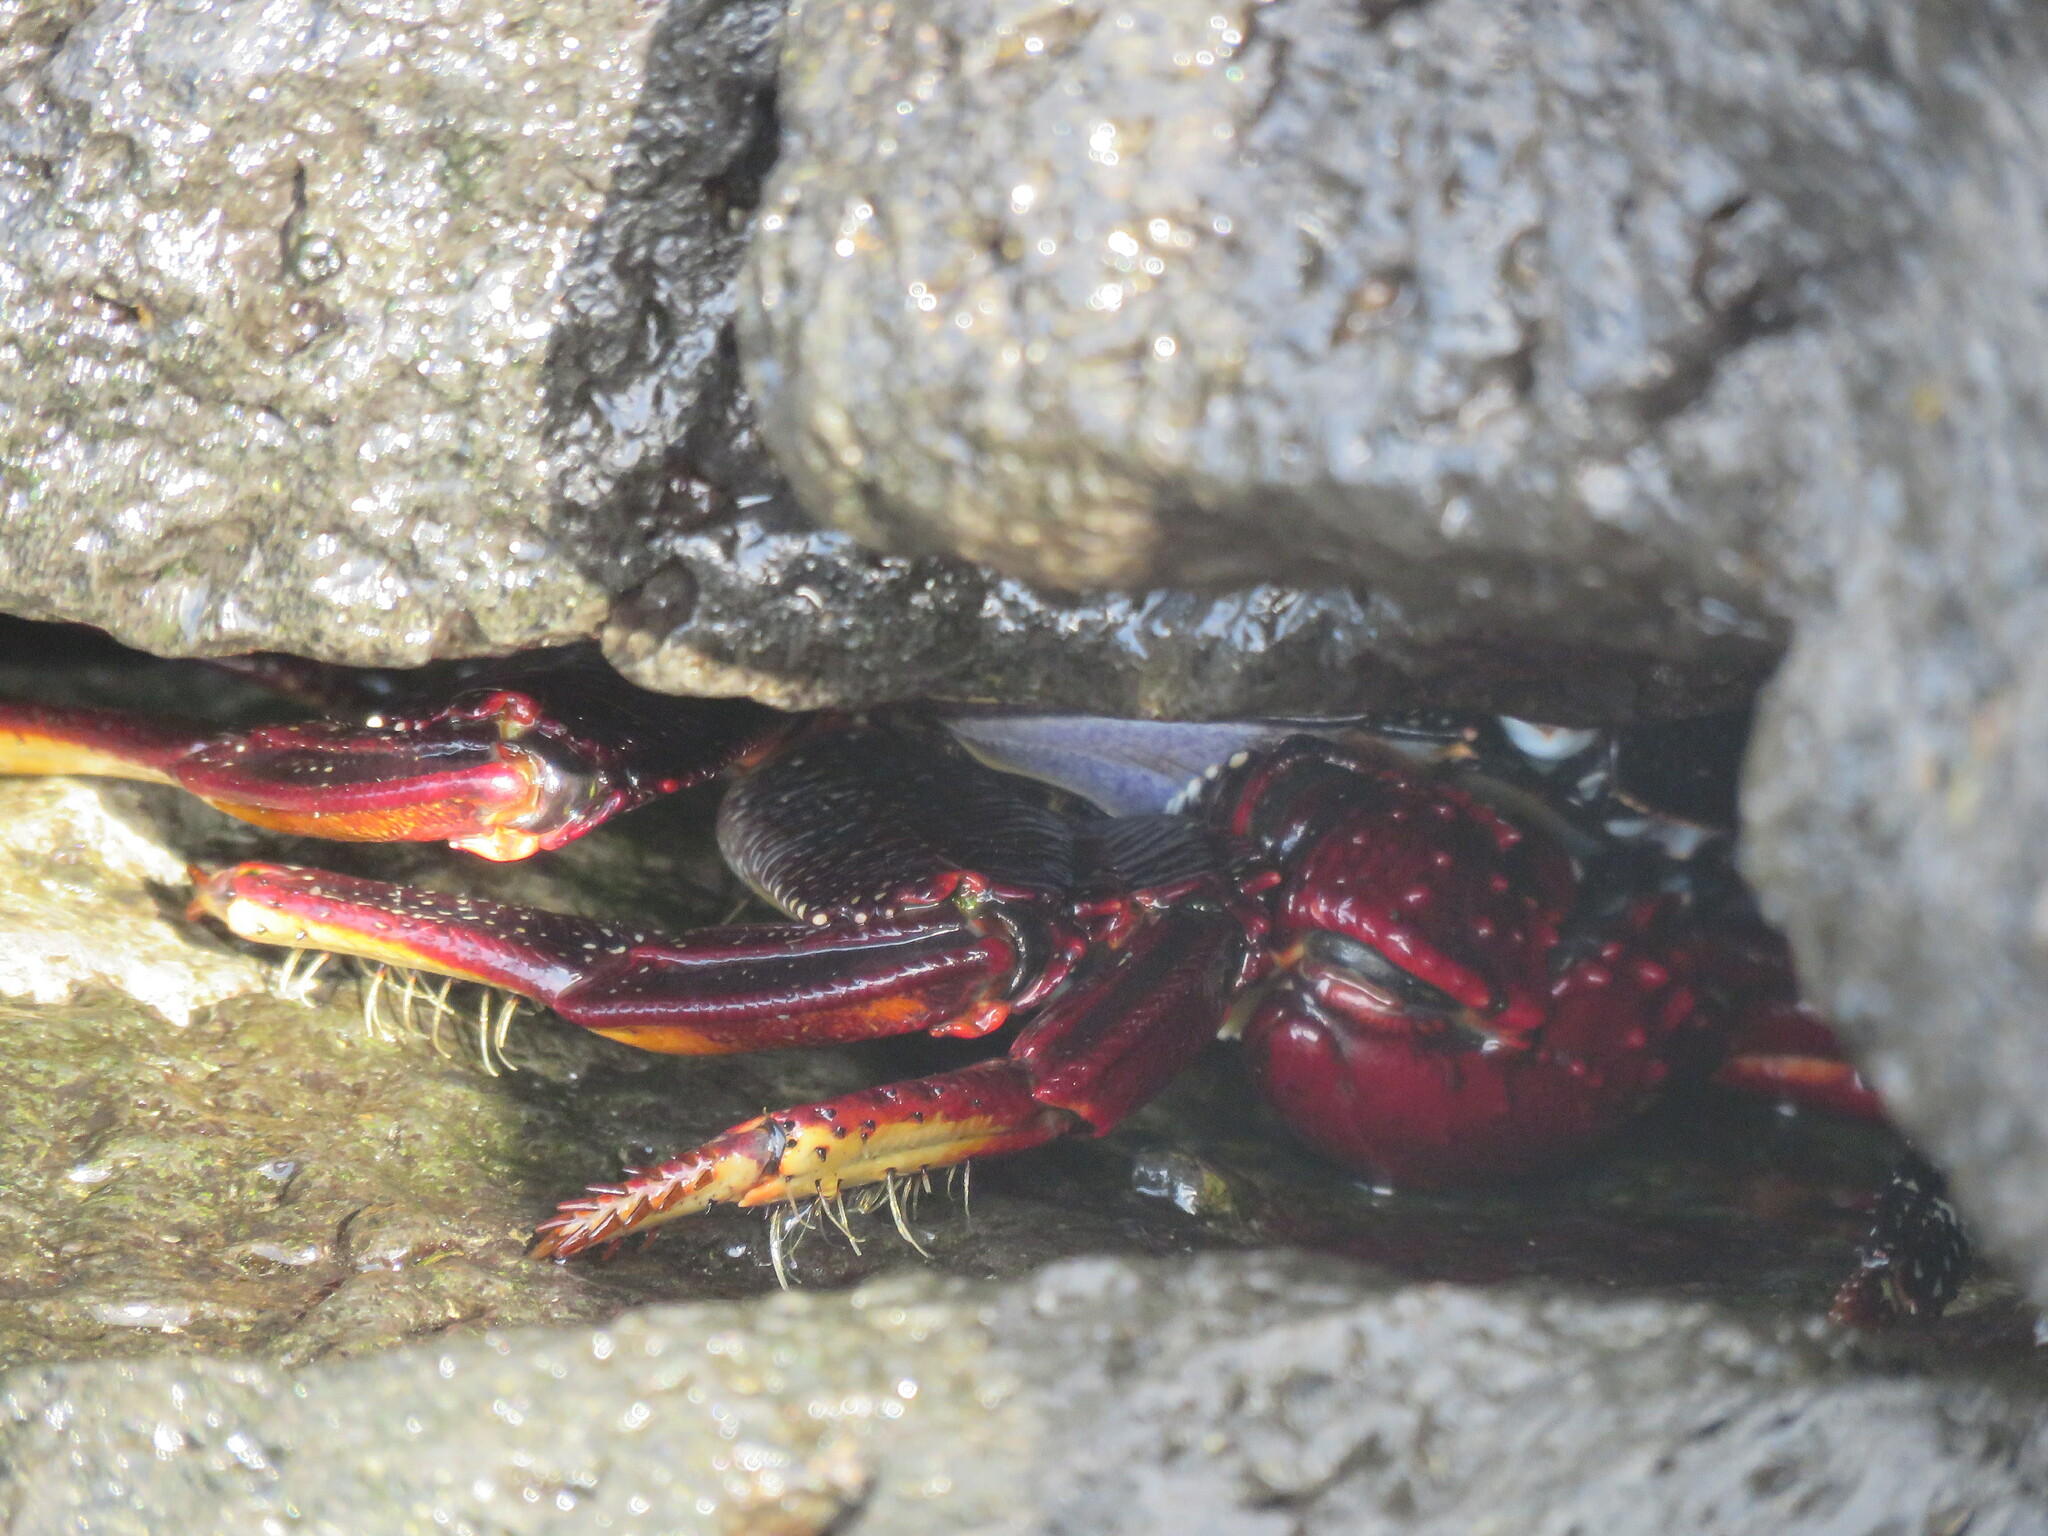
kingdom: Animalia
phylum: Arthropoda
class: Malacostraca
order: Decapoda
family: Grapsidae
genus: Grapsus
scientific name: Grapsus adscensionis
